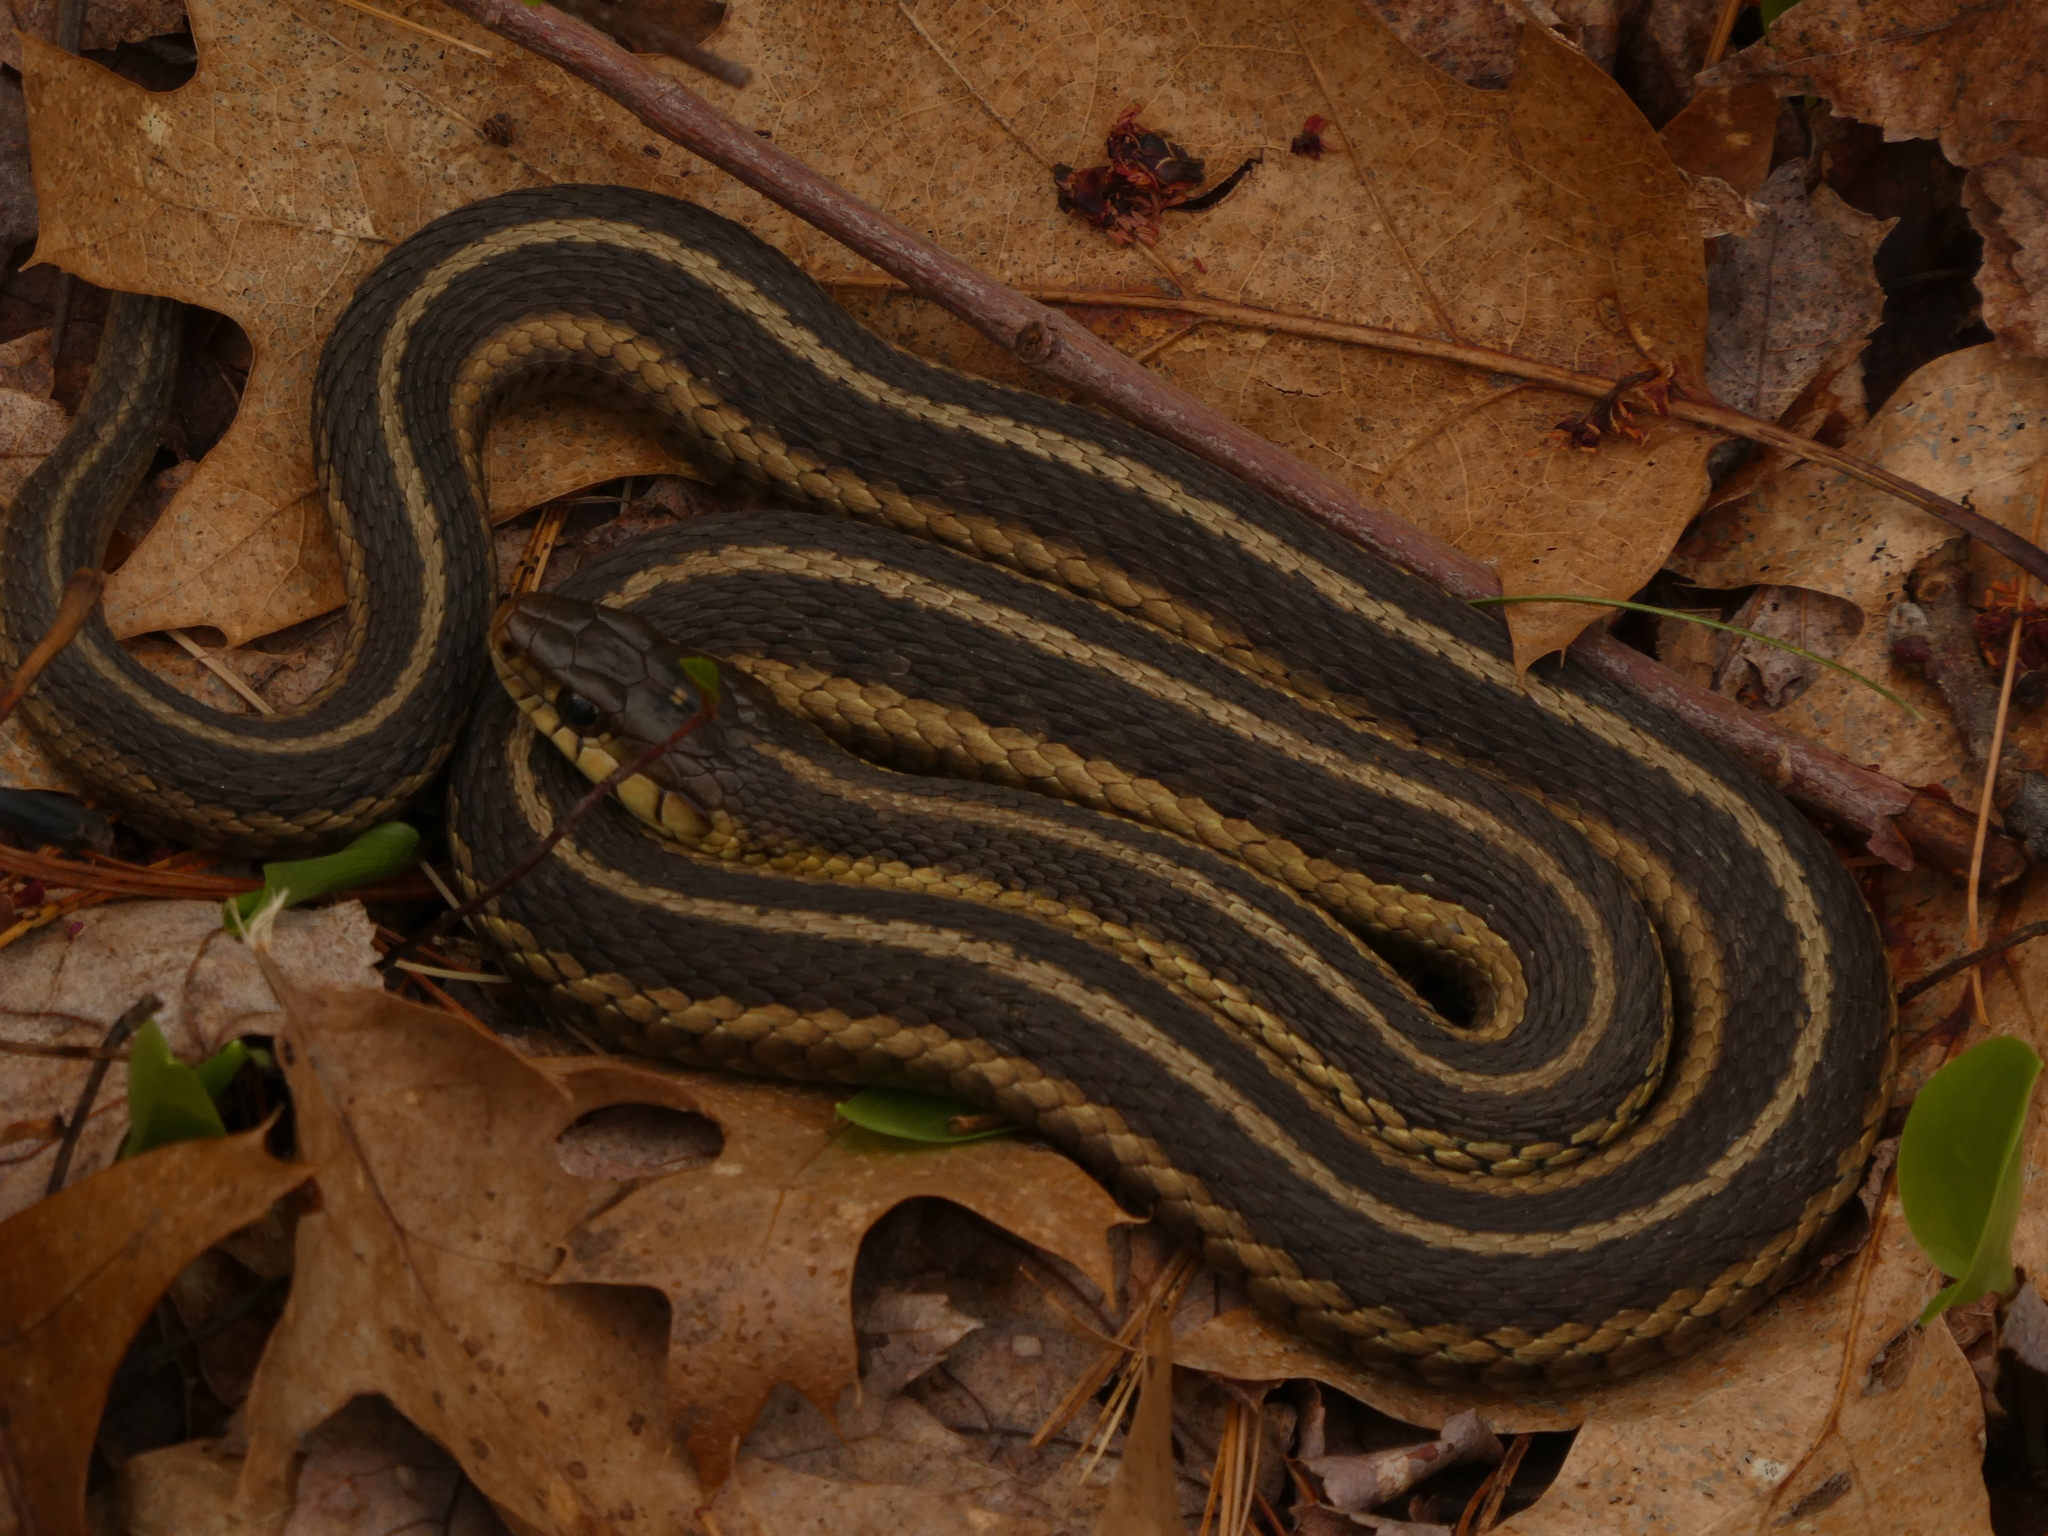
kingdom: Animalia
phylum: Chordata
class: Squamata
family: Colubridae
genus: Thamnophis
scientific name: Thamnophis sirtalis
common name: Common garter snake
